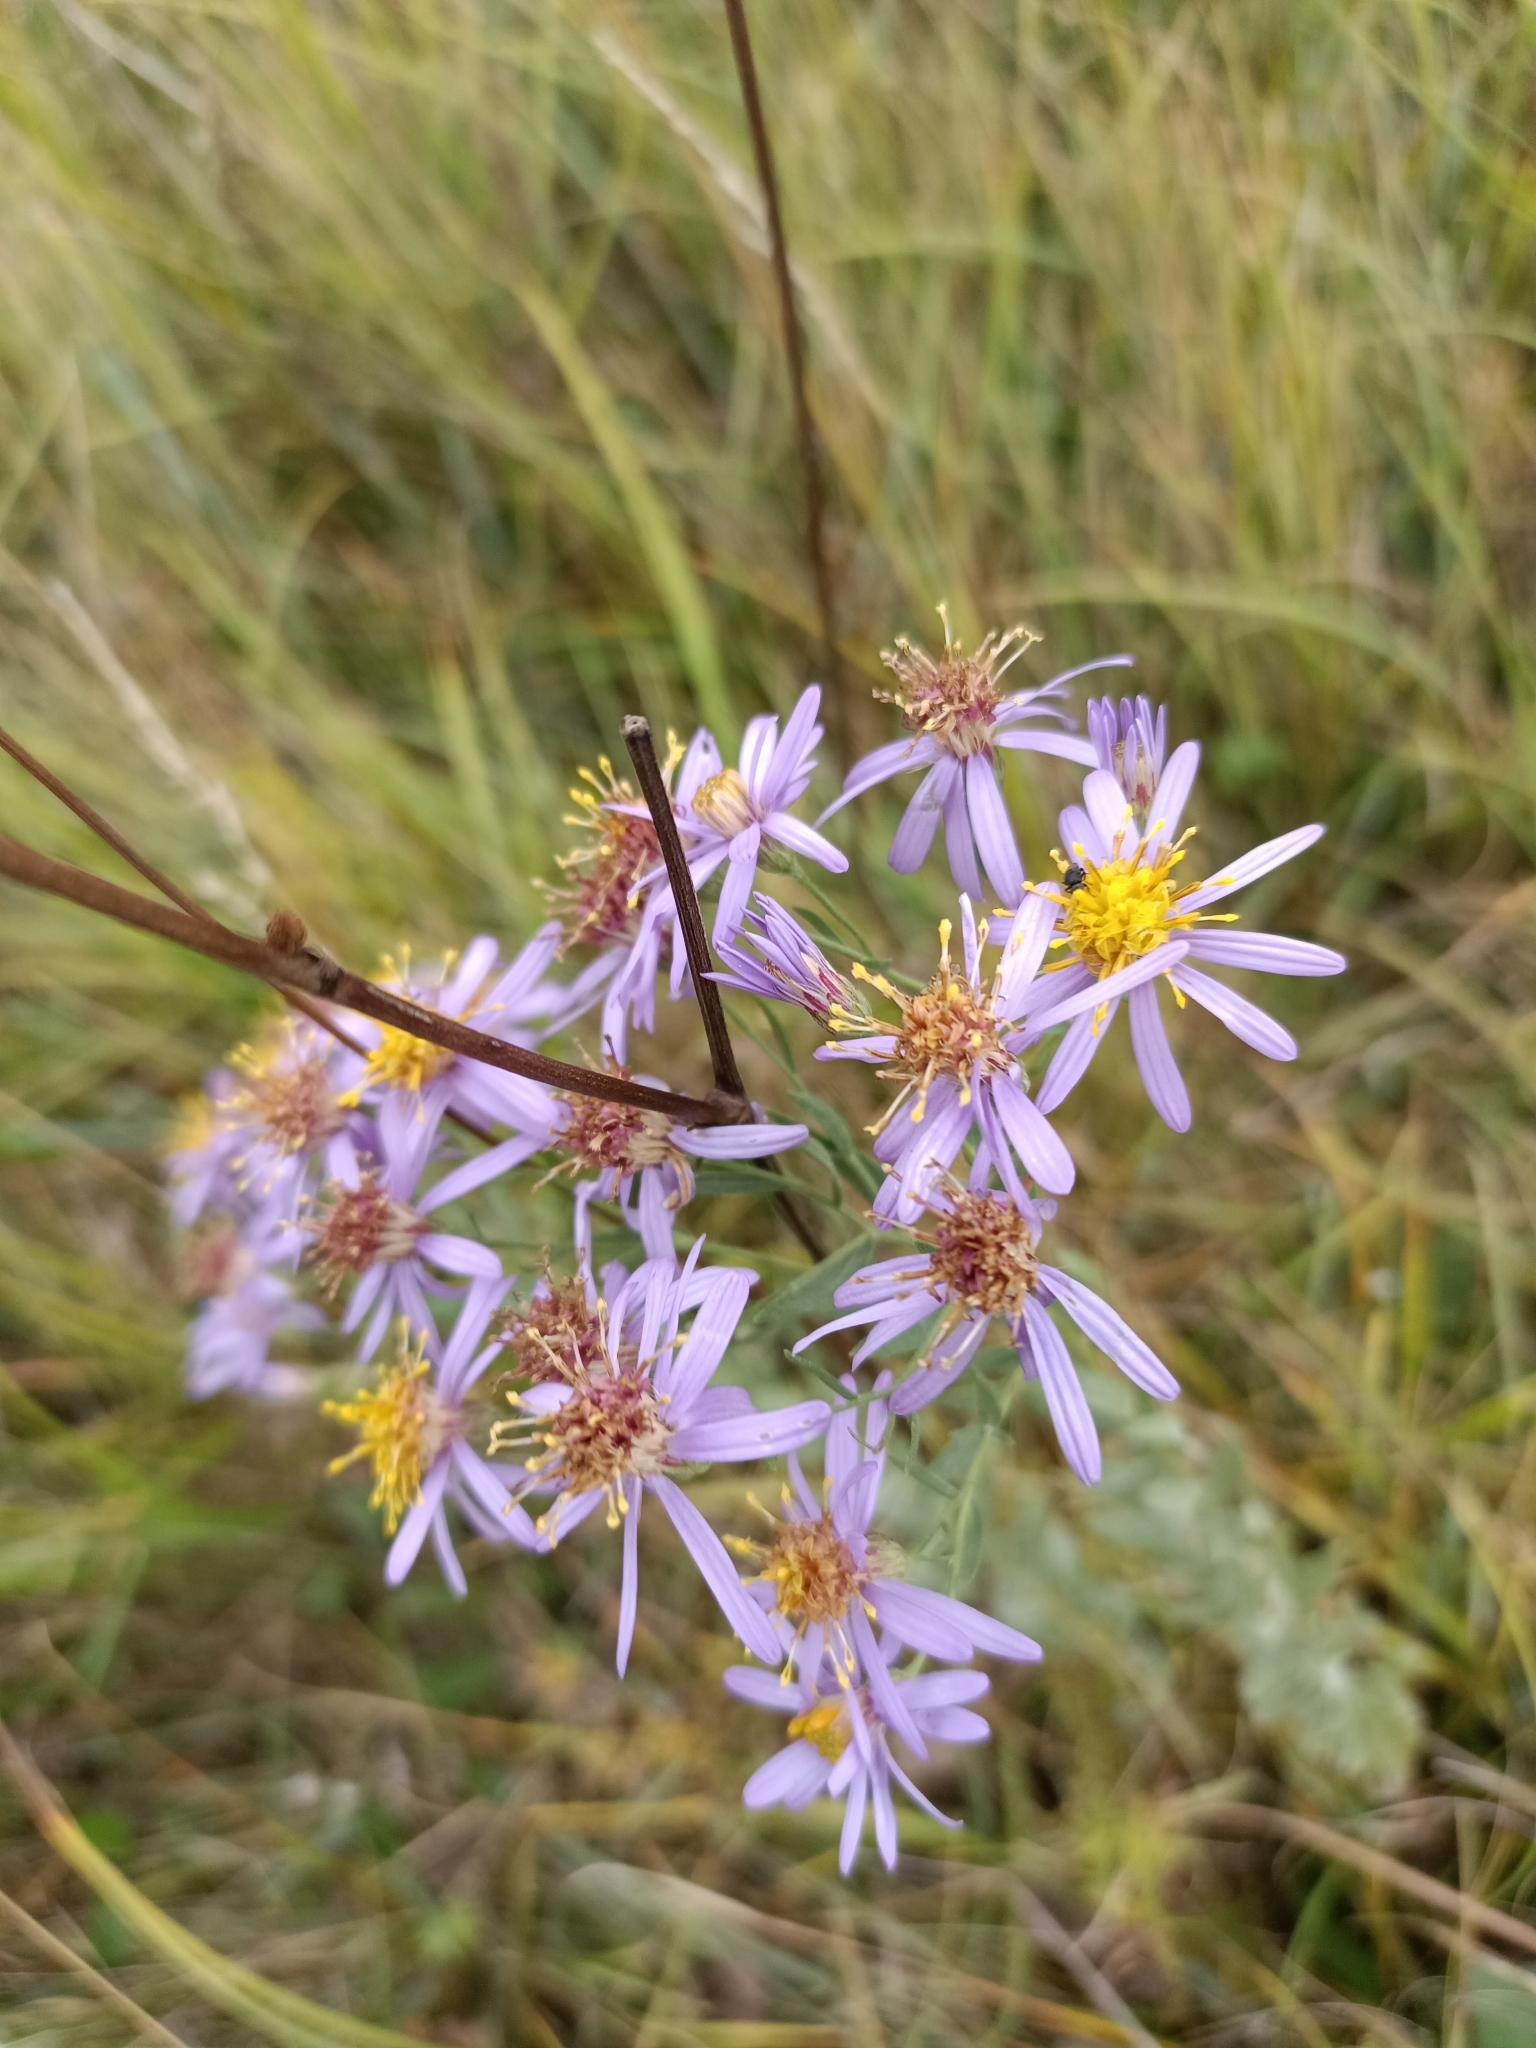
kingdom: Plantae
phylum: Tracheophyta
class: Magnoliopsida
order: Asterales
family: Asteraceae
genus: Galatella
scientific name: Galatella cana
